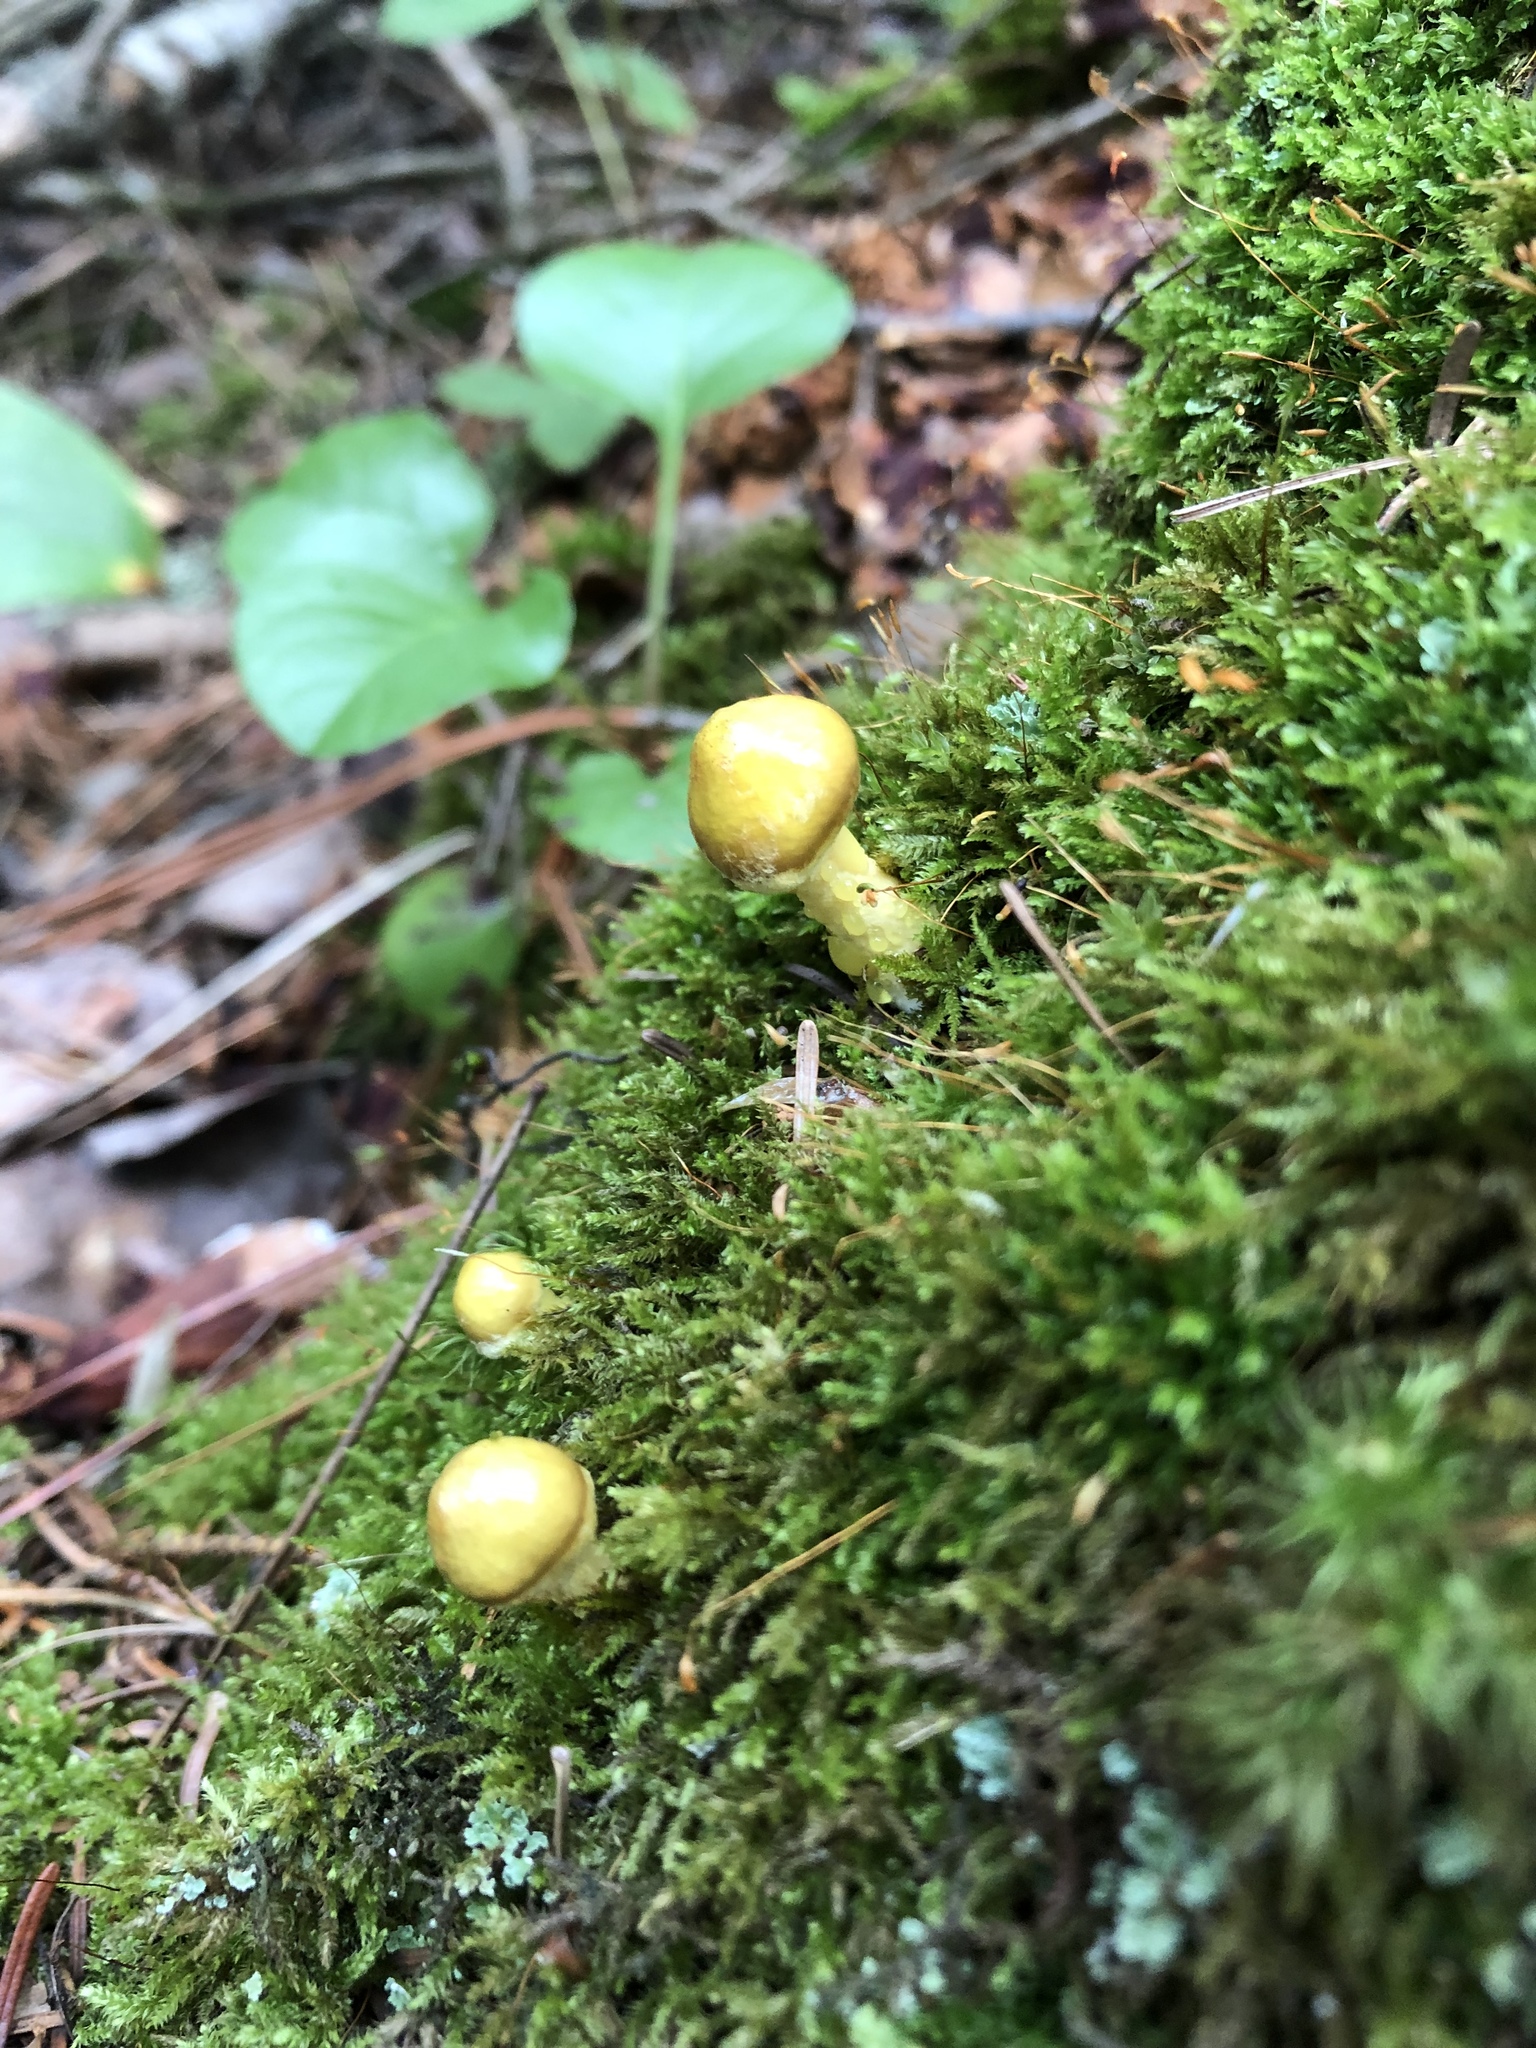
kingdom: Fungi
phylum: Basidiomycota
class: Agaricomycetes
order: Boletales
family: Suillaceae
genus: Suillus
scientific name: Suillus americanus
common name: Chicken fat mushroom
